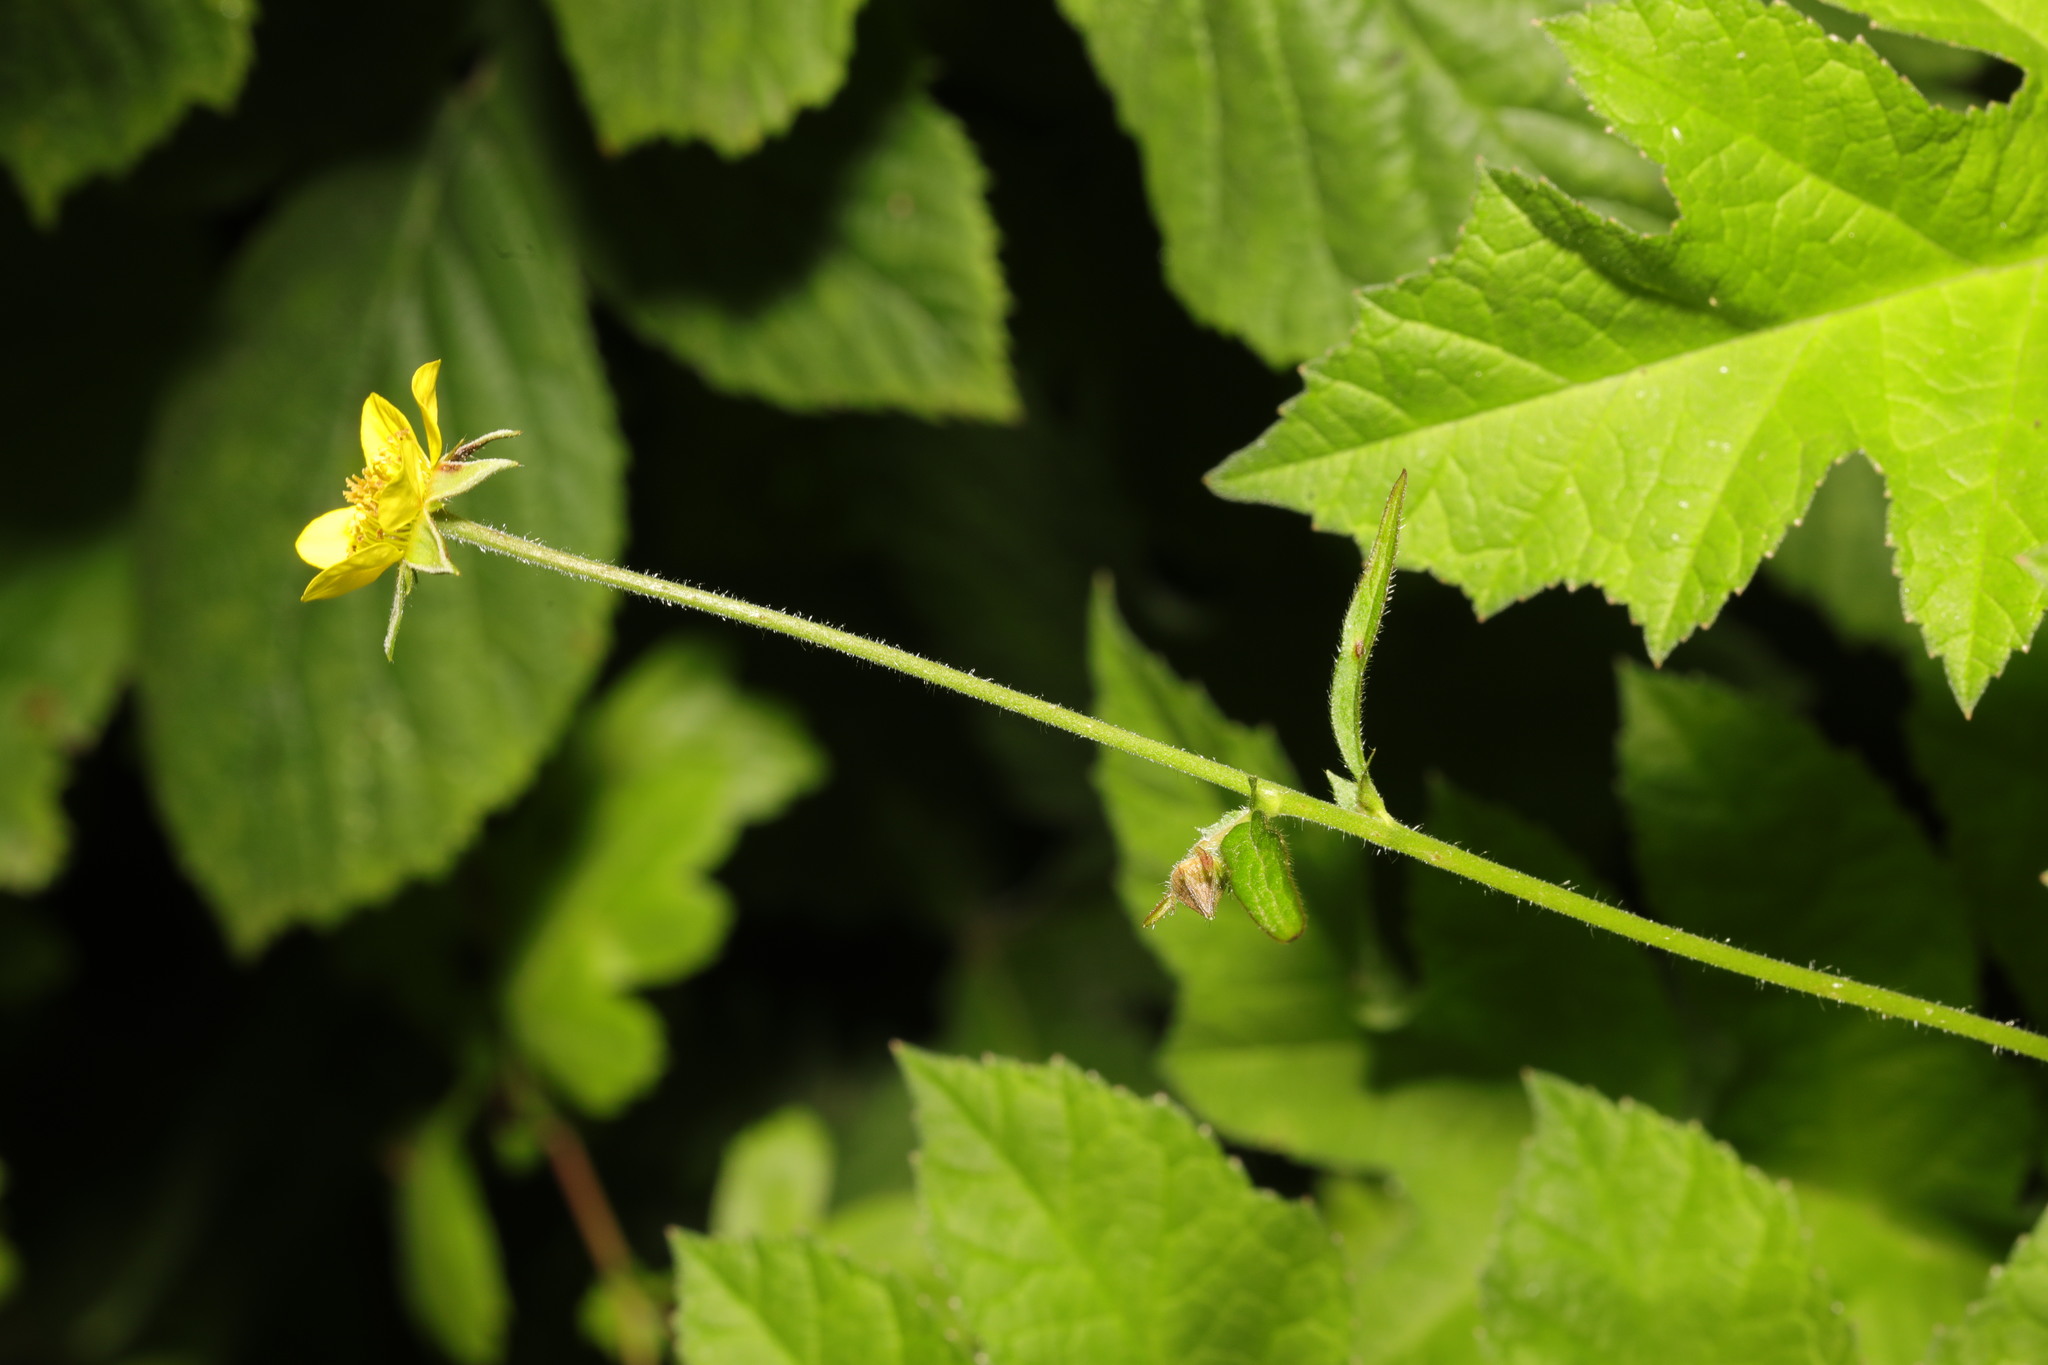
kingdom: Plantae
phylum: Tracheophyta
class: Magnoliopsida
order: Rosales
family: Rosaceae
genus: Geum
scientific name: Geum urbanum
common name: Wood avens
